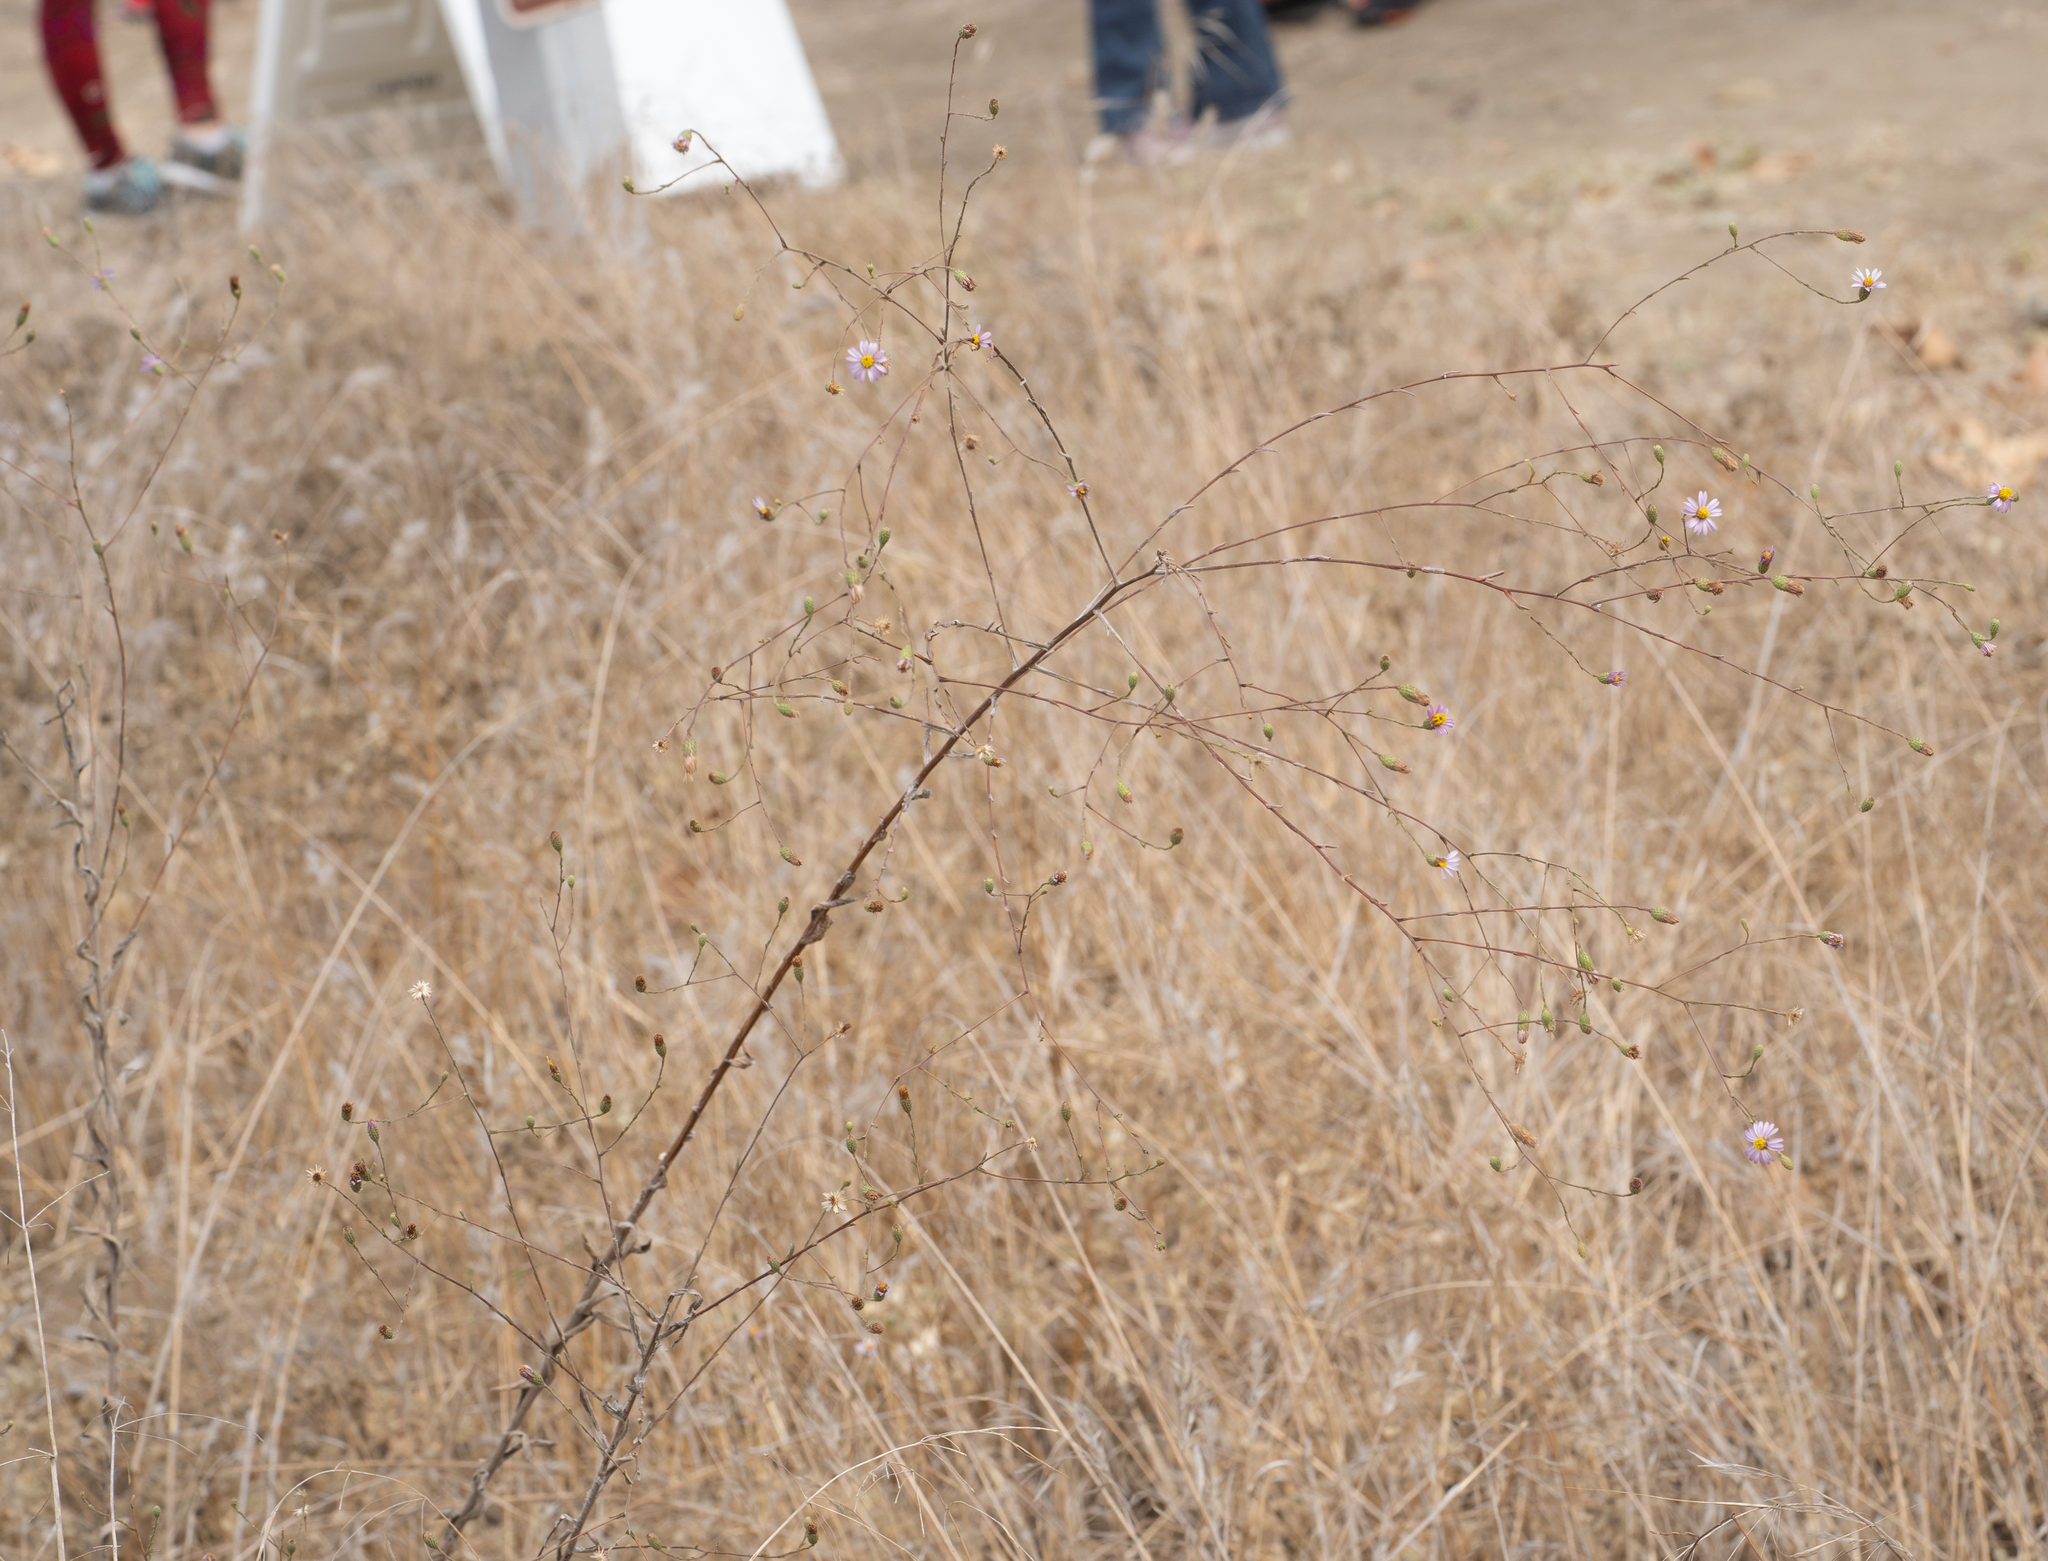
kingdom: Plantae
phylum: Tracheophyta
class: Magnoliopsida
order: Asterales
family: Asteraceae
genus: Corethrogyne
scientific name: Corethrogyne filaginifolia
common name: Sand-aster
